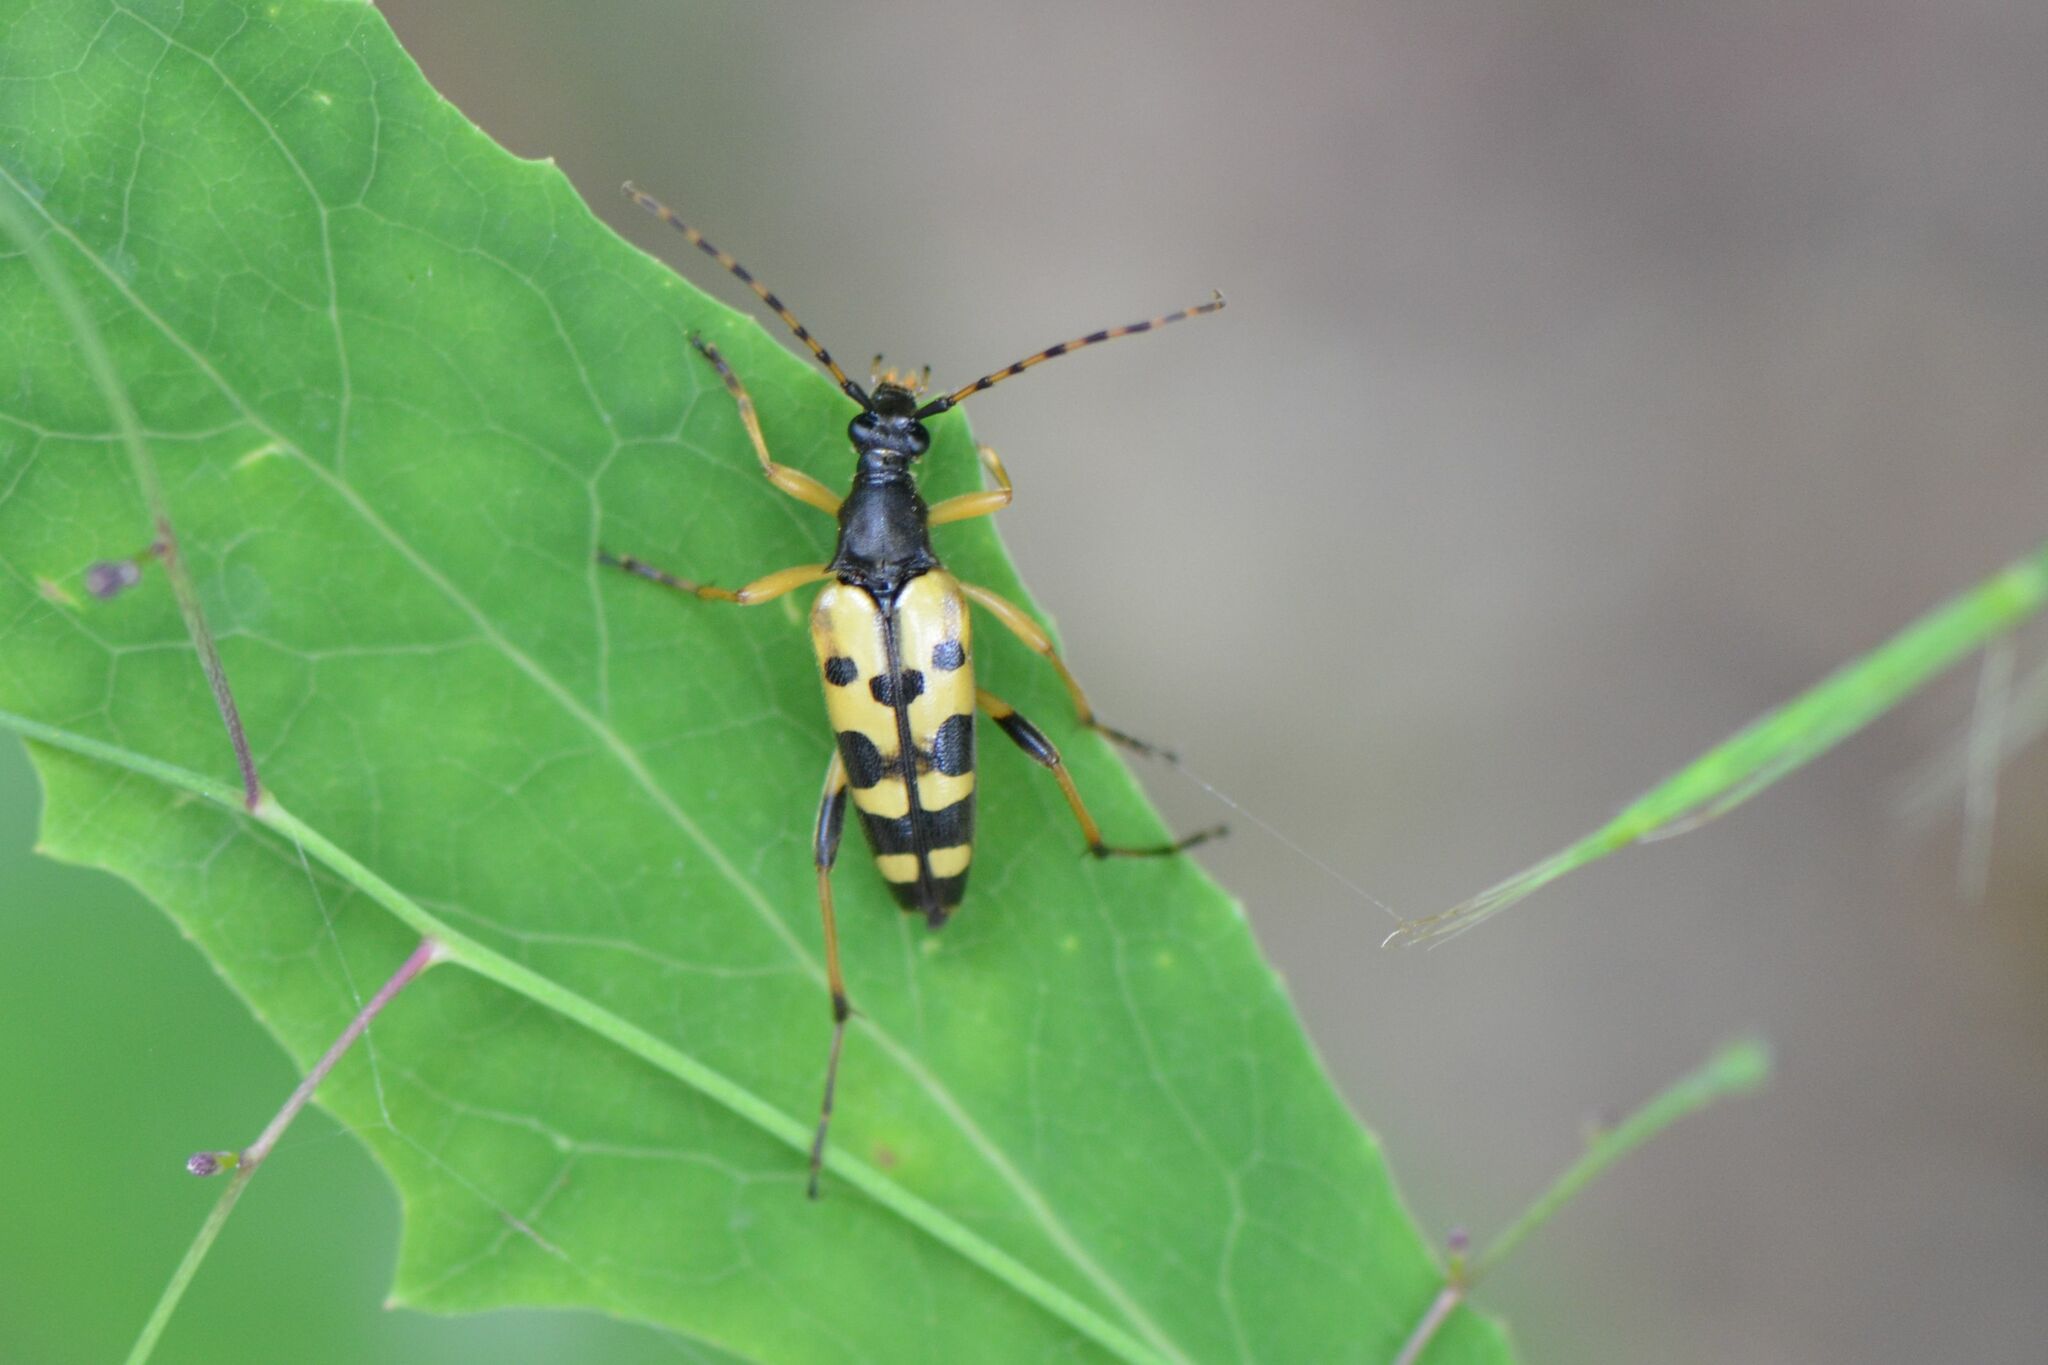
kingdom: Animalia
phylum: Arthropoda
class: Insecta
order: Coleoptera
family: Cerambycidae
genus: Rutpela
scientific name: Rutpela maculata
